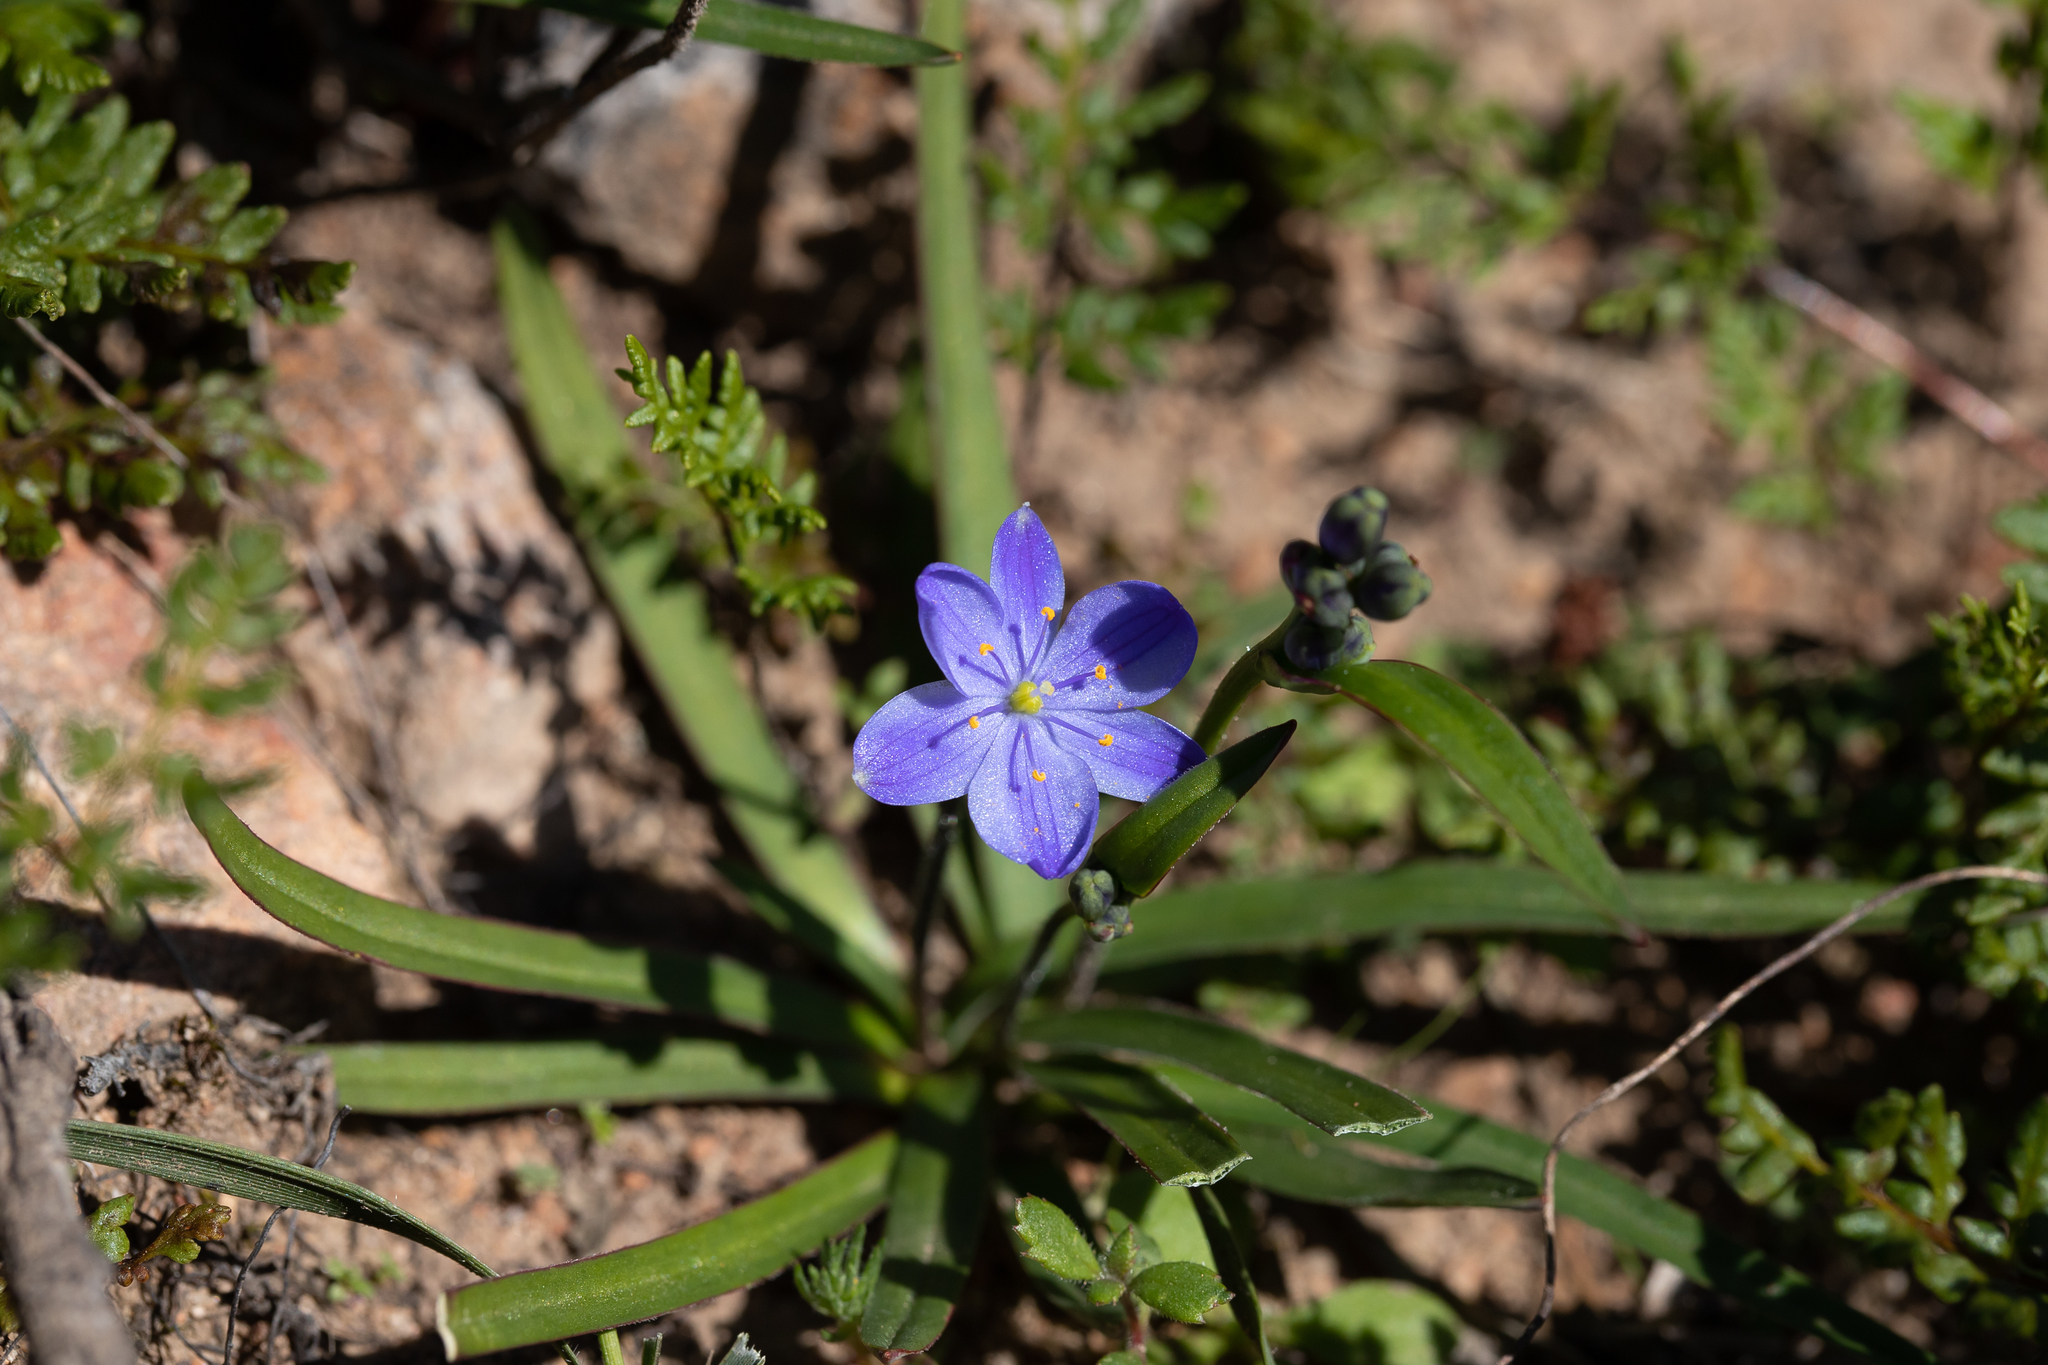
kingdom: Plantae
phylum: Tracheophyta
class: Liliopsida
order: Asparagales
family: Asphodelaceae
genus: Chamaescilla
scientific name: Chamaescilla corymbosa
